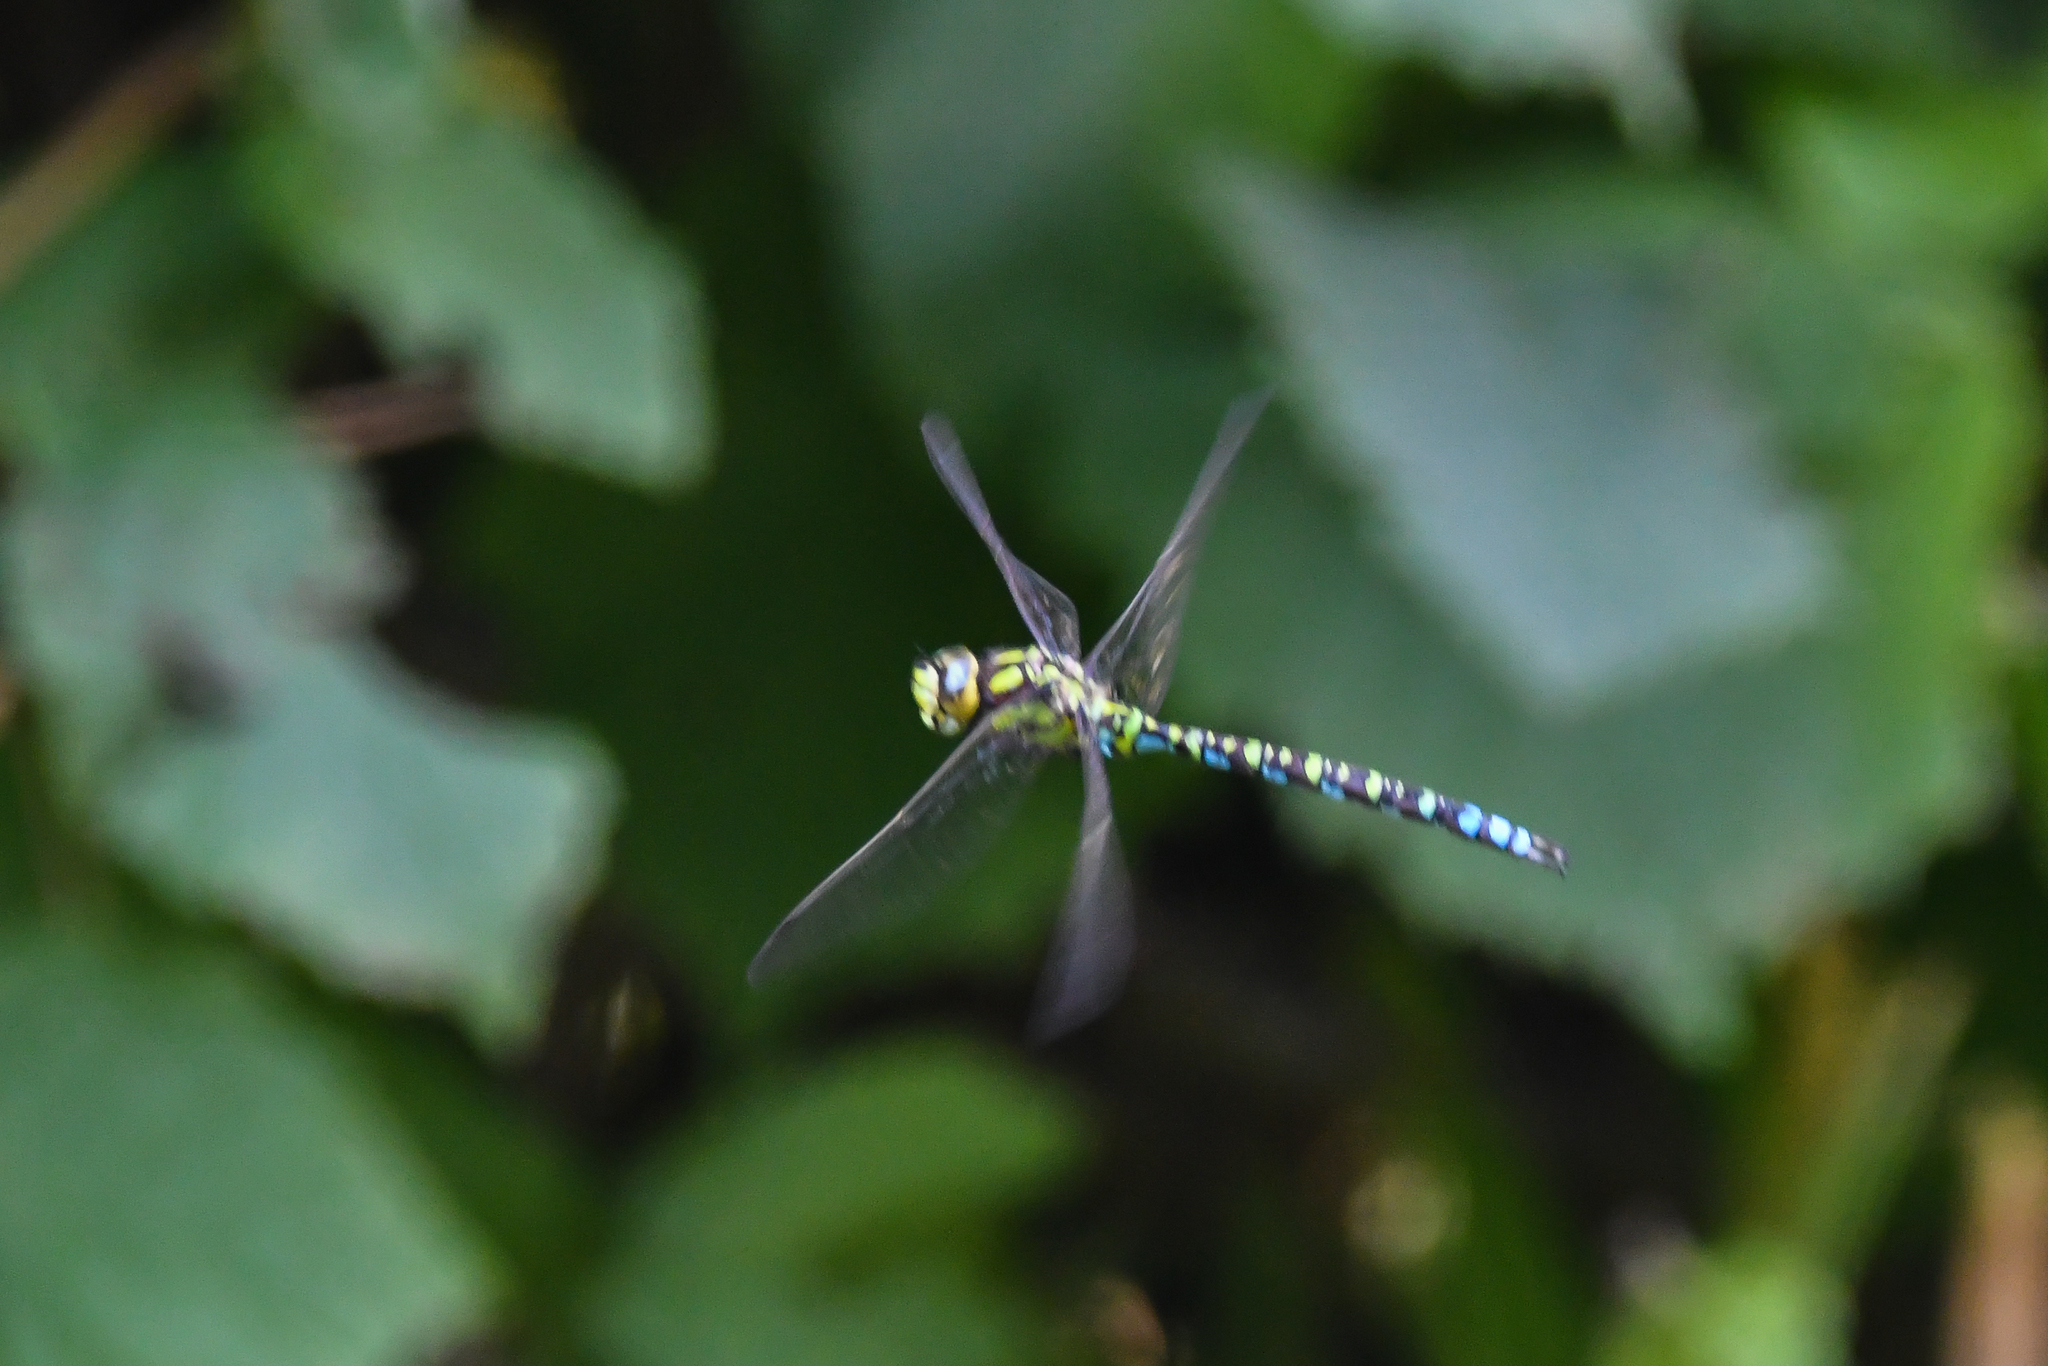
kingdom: Animalia
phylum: Arthropoda
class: Insecta
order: Odonata
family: Aeshnidae
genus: Aeshna
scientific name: Aeshna cyanea
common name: Southern hawker
